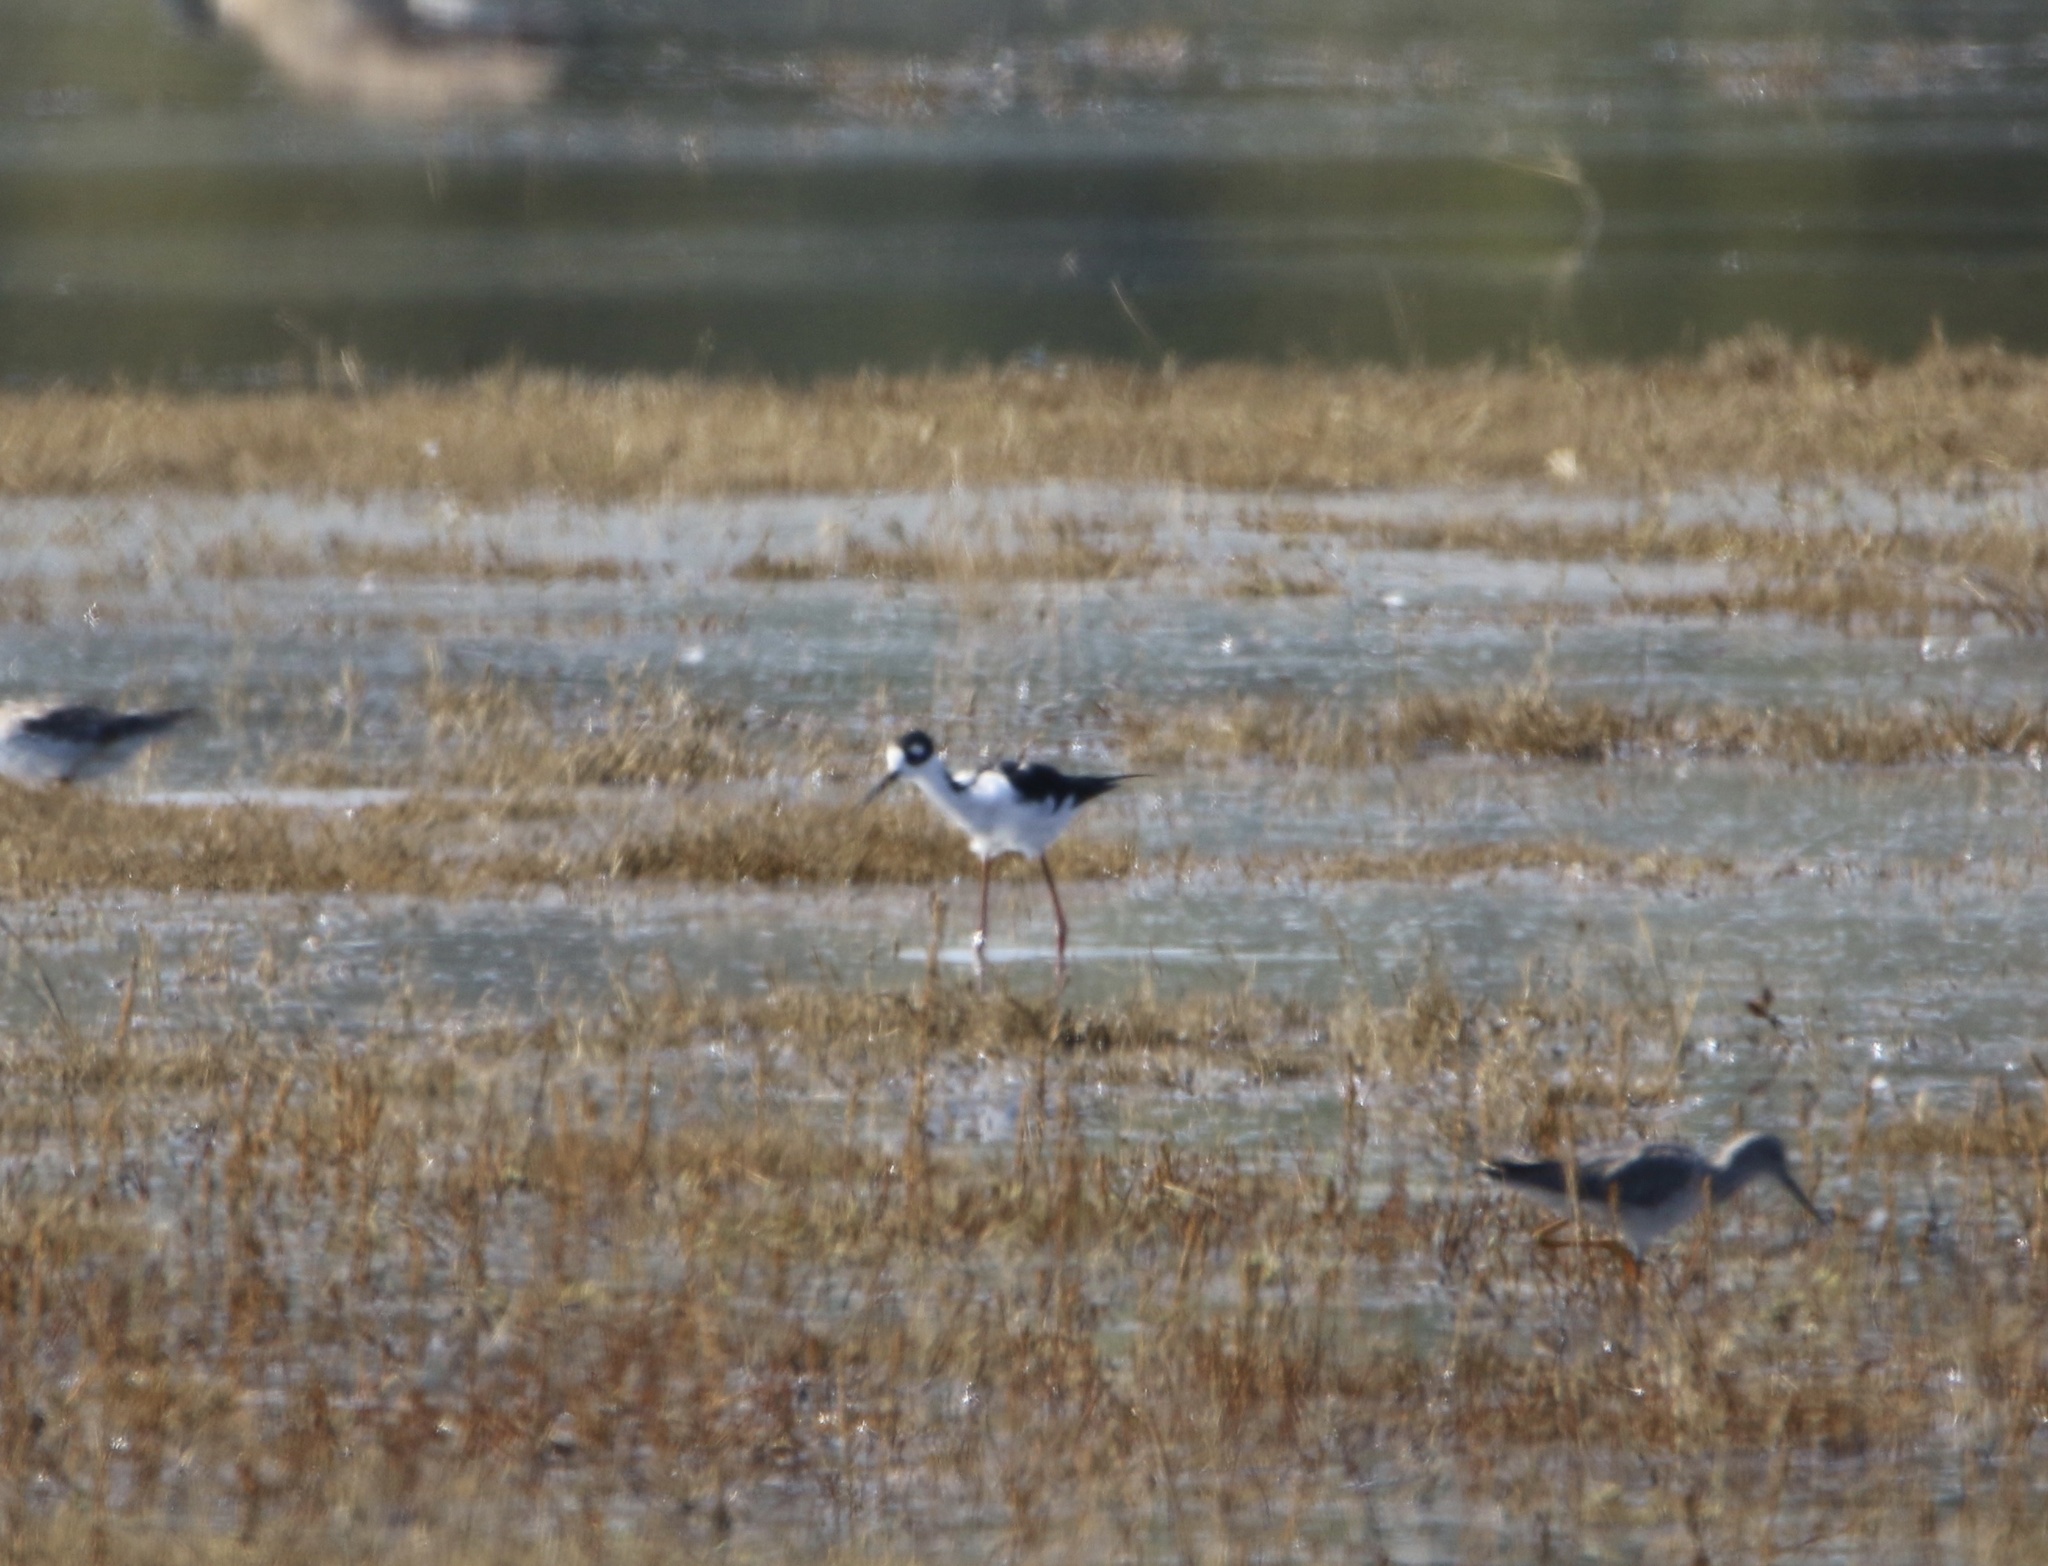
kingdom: Animalia
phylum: Chordata
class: Aves
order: Charadriiformes
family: Recurvirostridae
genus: Himantopus
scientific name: Himantopus mexicanus
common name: Black-necked stilt
